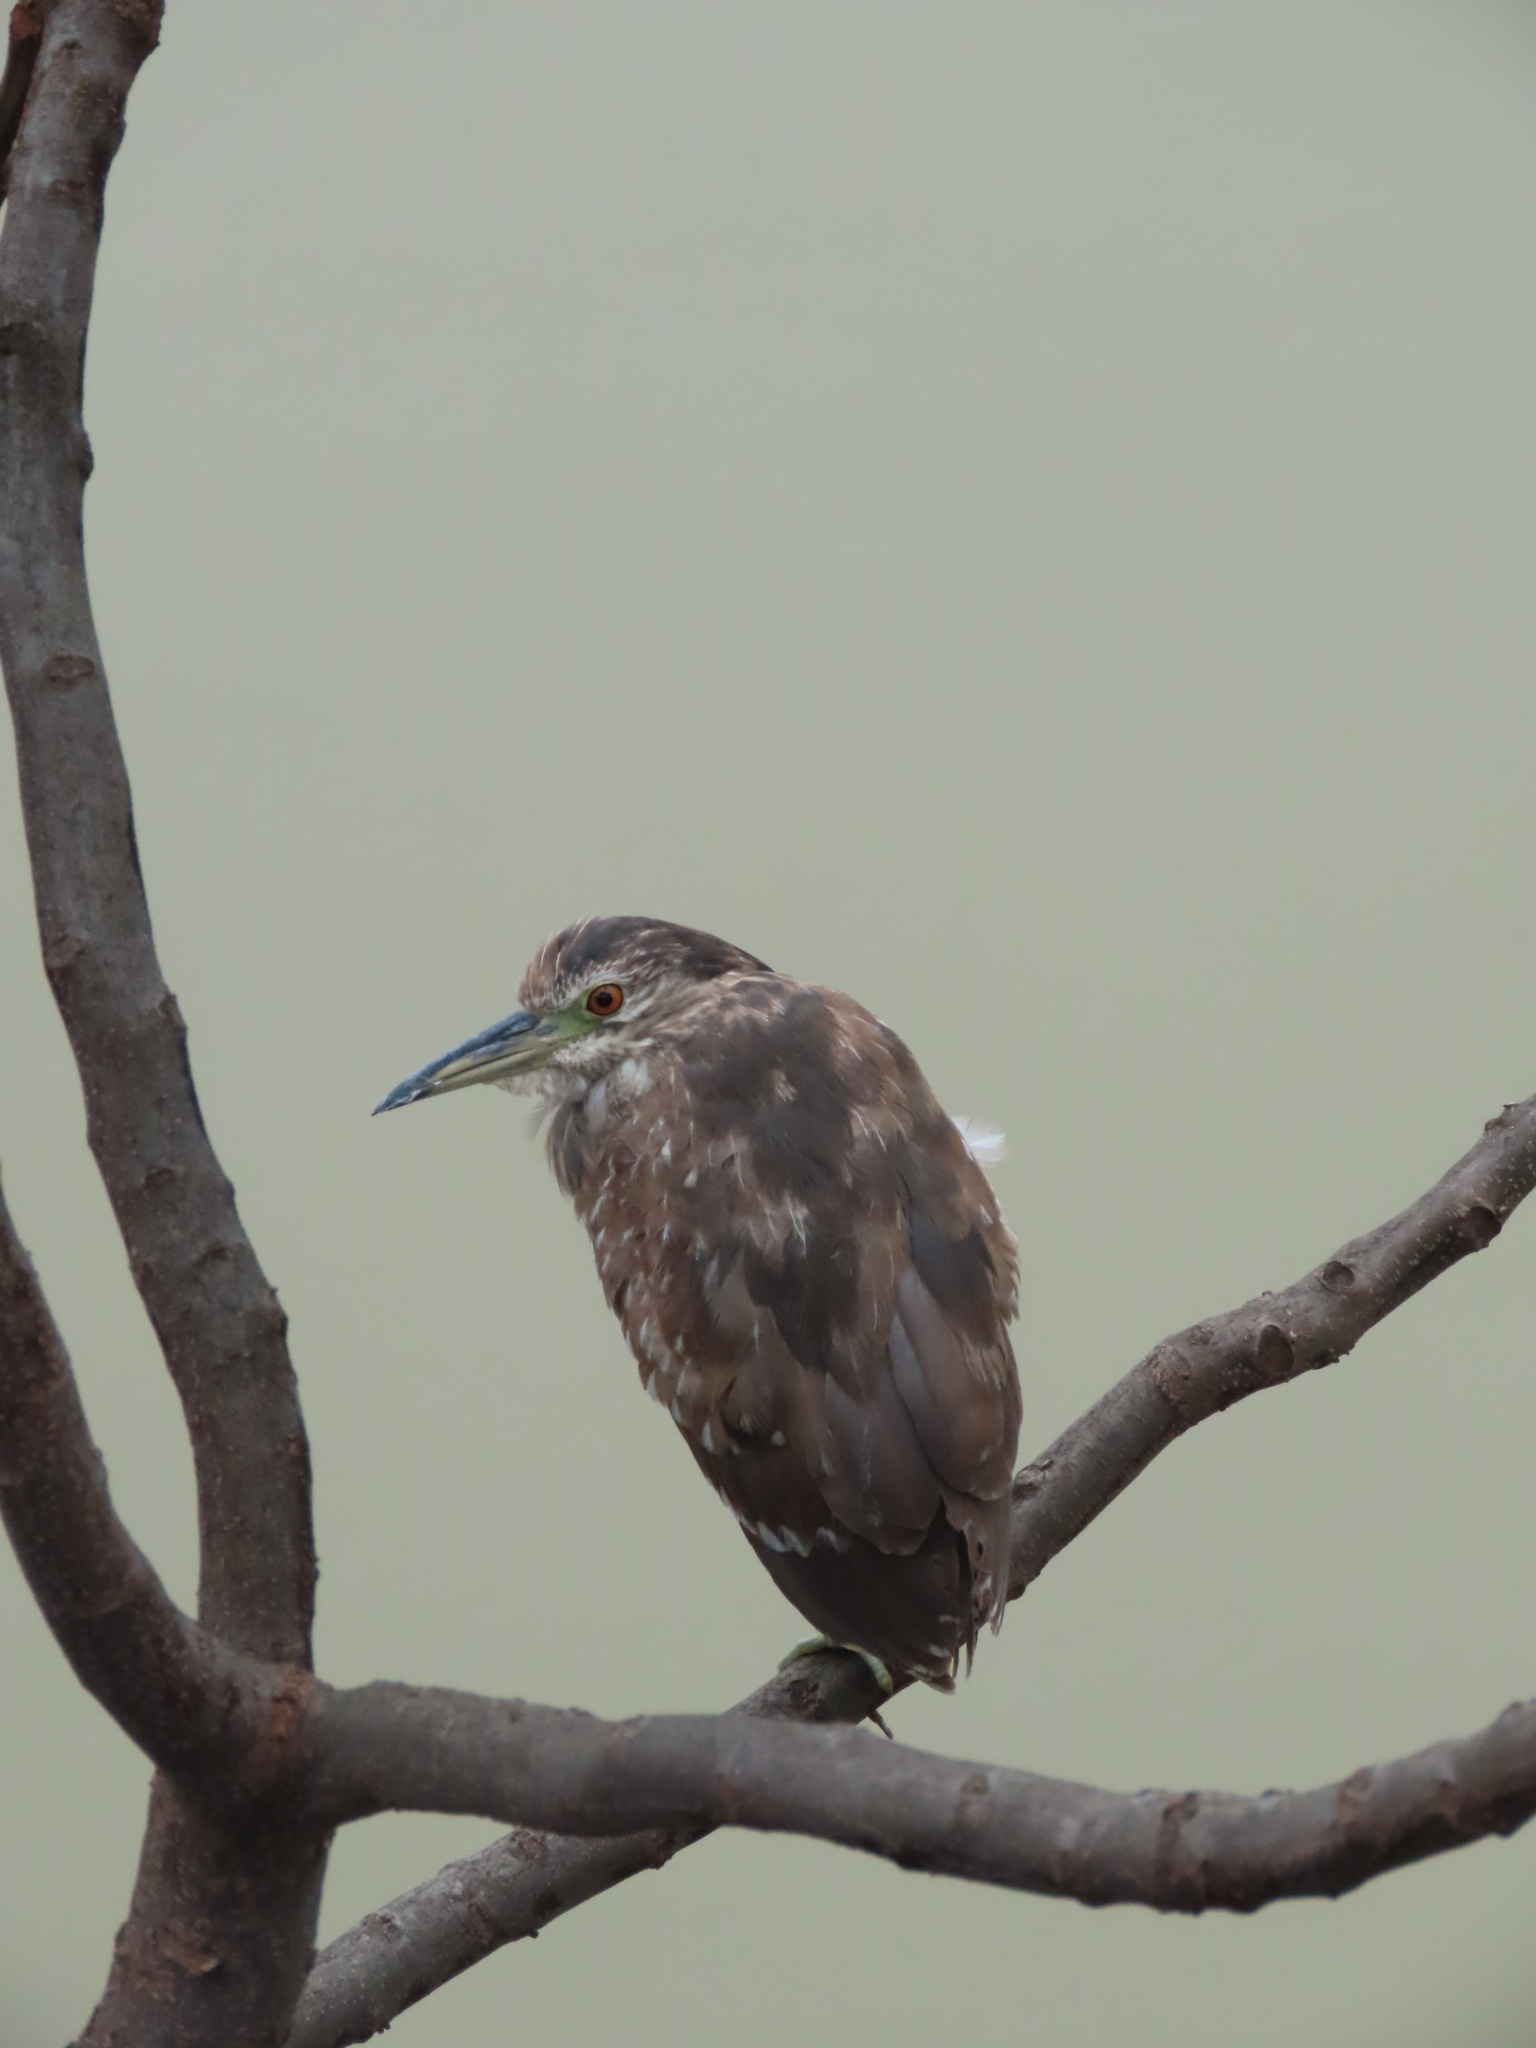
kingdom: Animalia
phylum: Chordata
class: Aves
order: Pelecaniformes
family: Ardeidae
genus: Nycticorax
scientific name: Nycticorax nycticorax
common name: Black-crowned night heron
